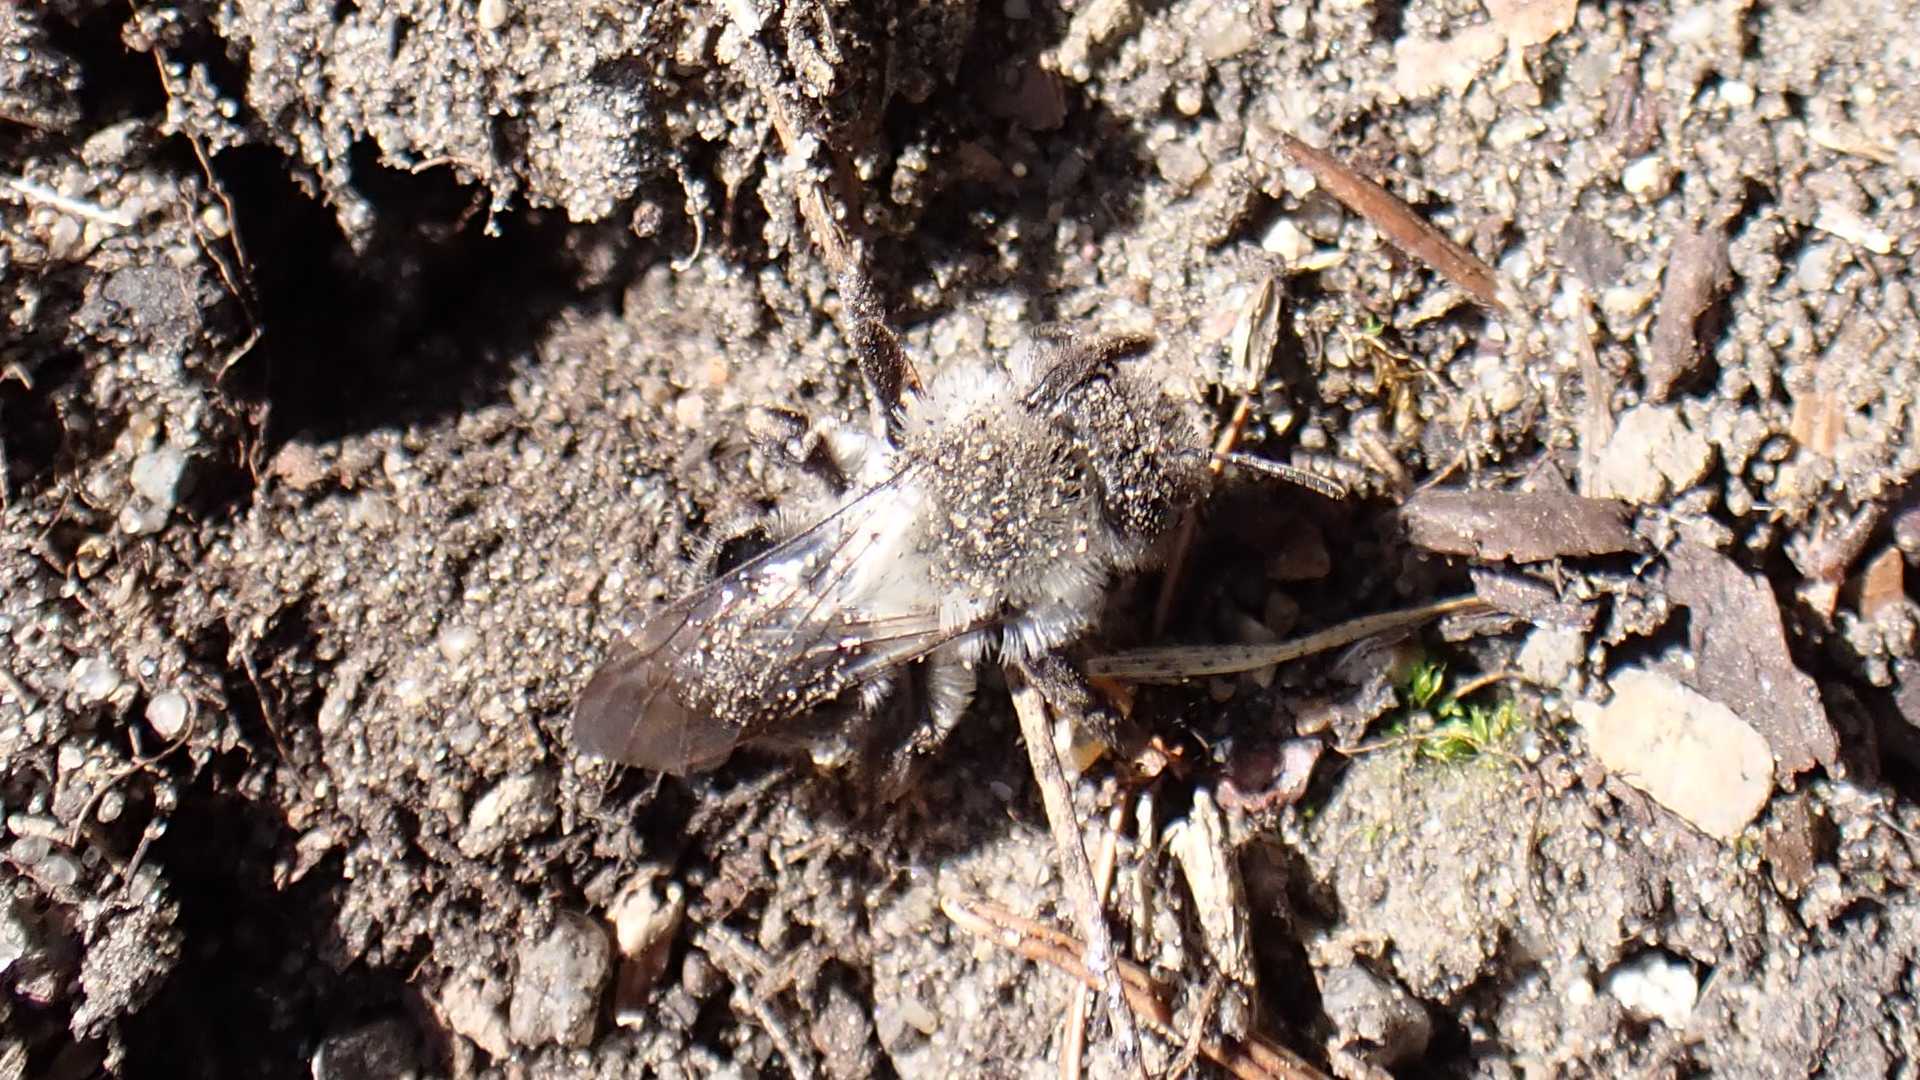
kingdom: Animalia
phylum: Arthropoda
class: Insecta
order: Hymenoptera
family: Andrenidae
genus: Andrena
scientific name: Andrena vaga
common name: Grey-backed mining bee
